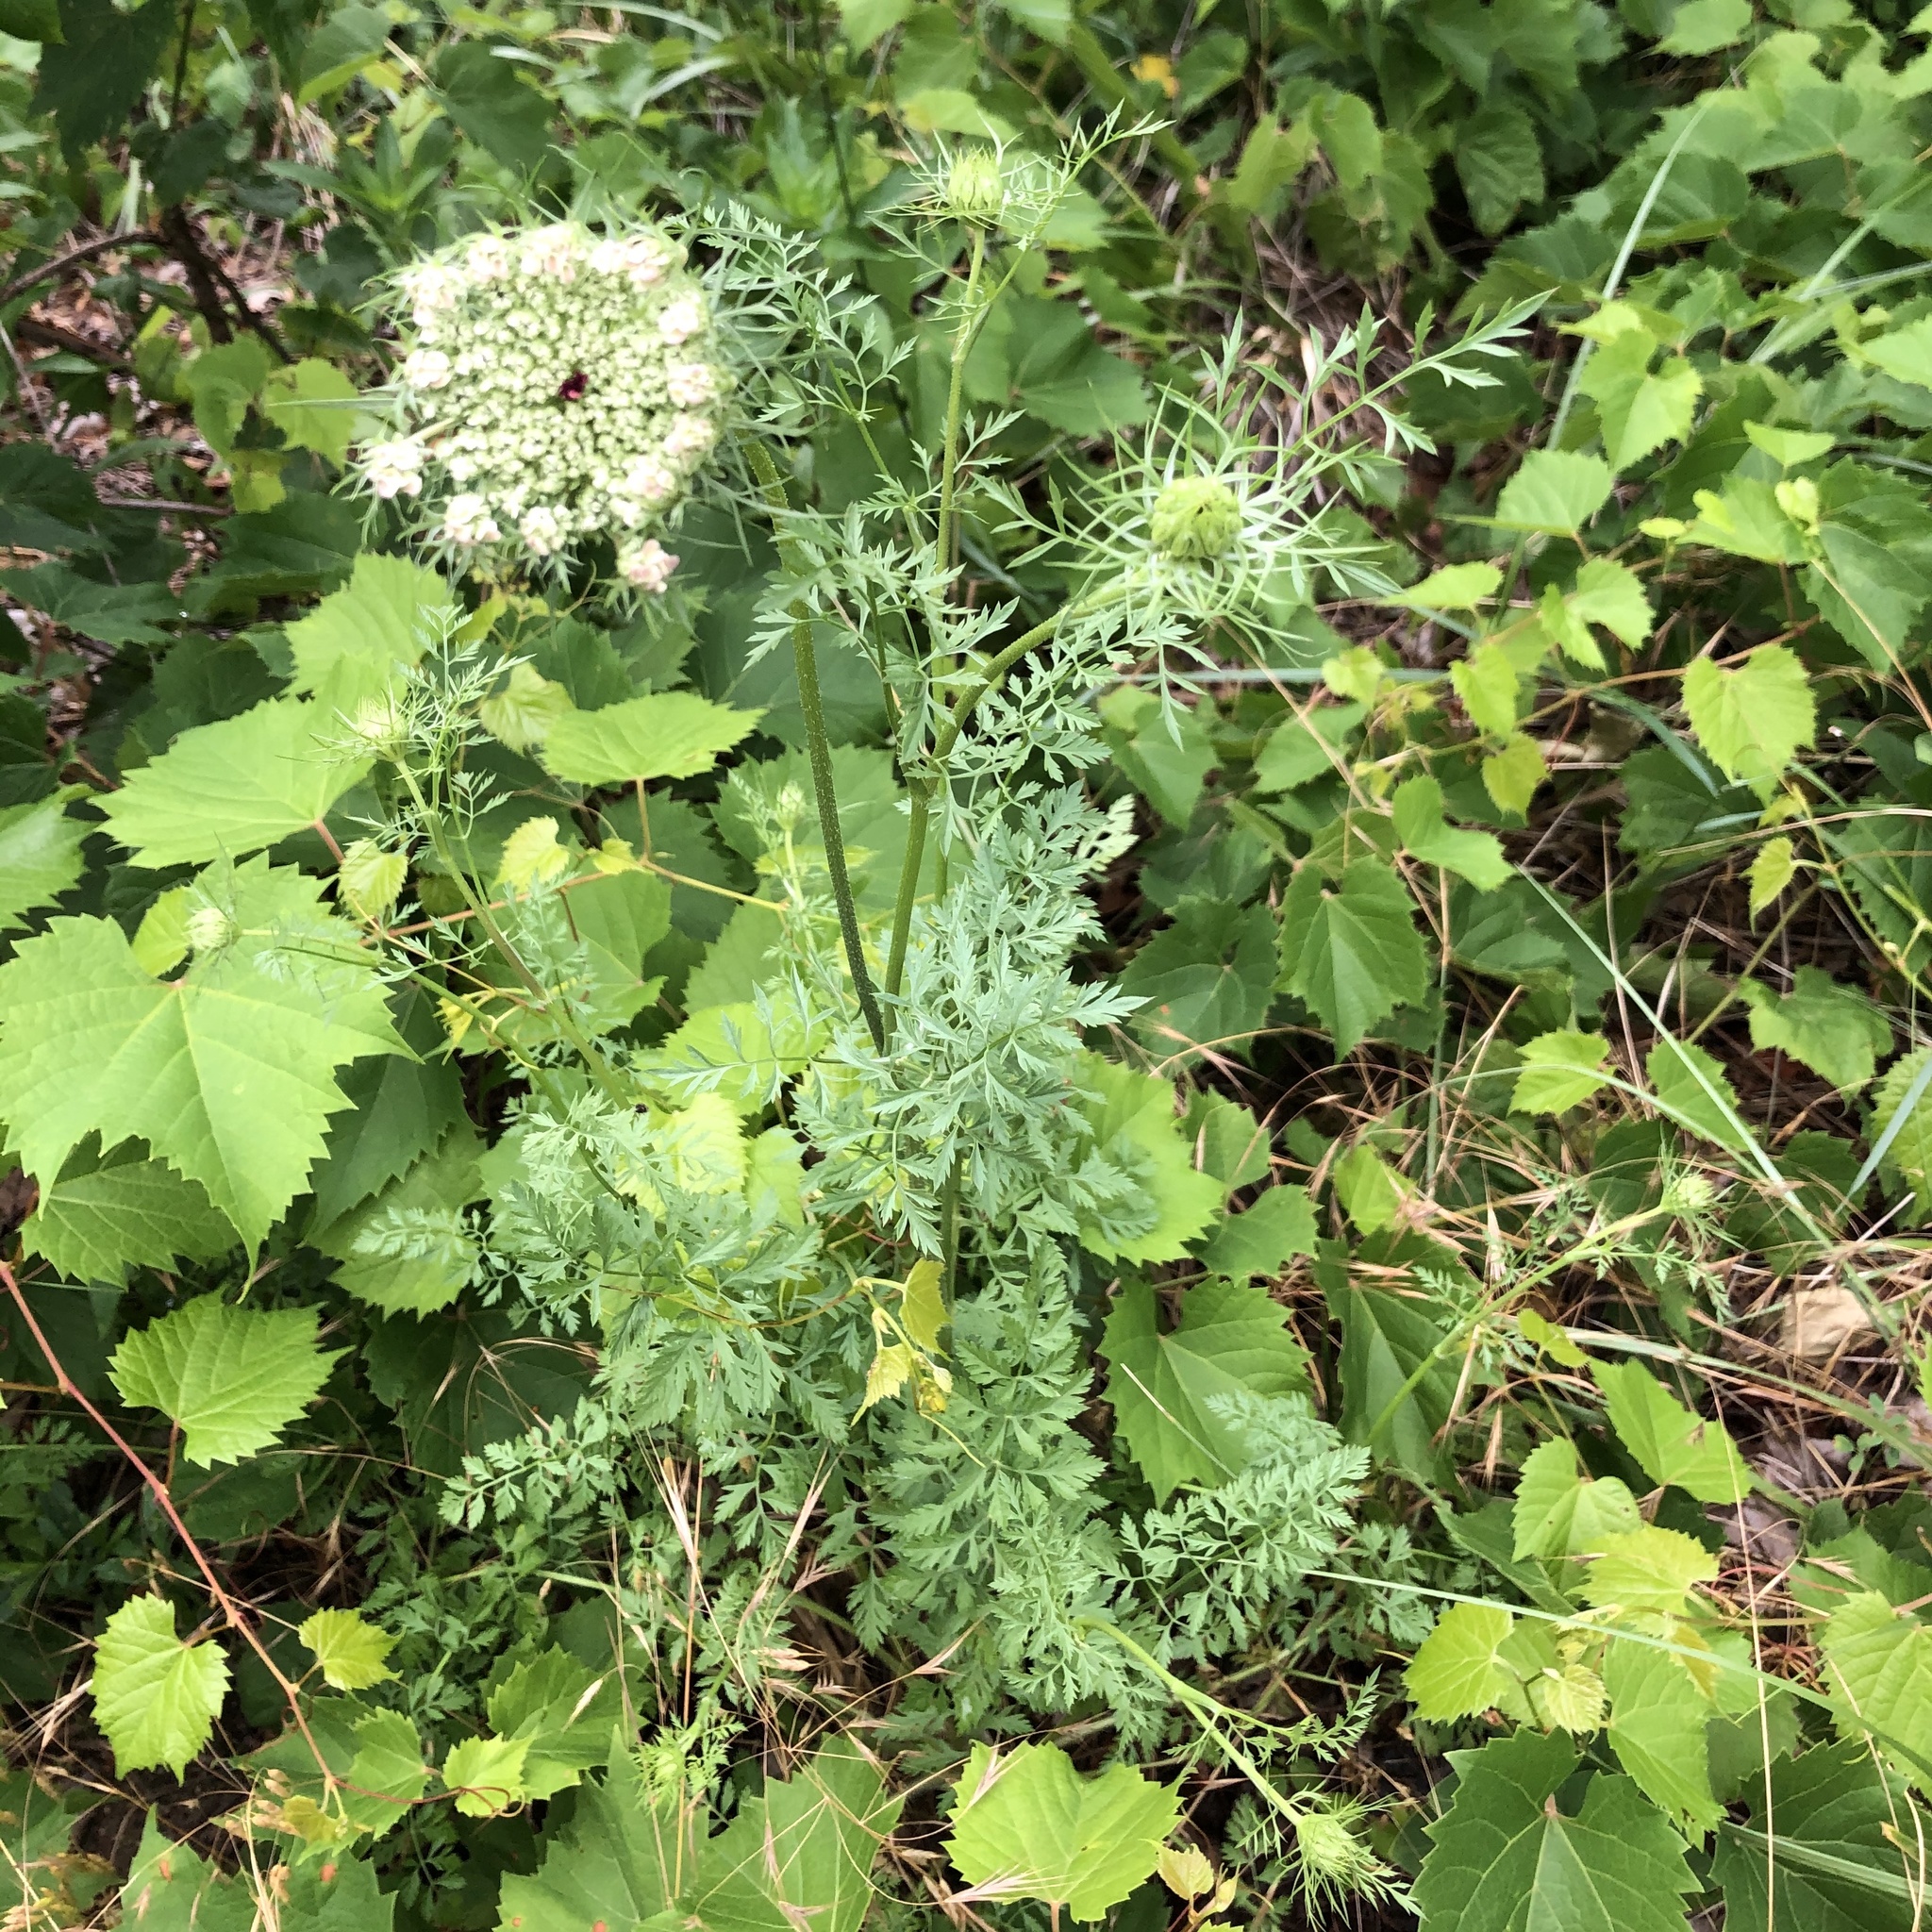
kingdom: Plantae
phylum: Tracheophyta
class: Magnoliopsida
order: Apiales
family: Apiaceae
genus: Daucus
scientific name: Daucus carota
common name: Wild carrot
